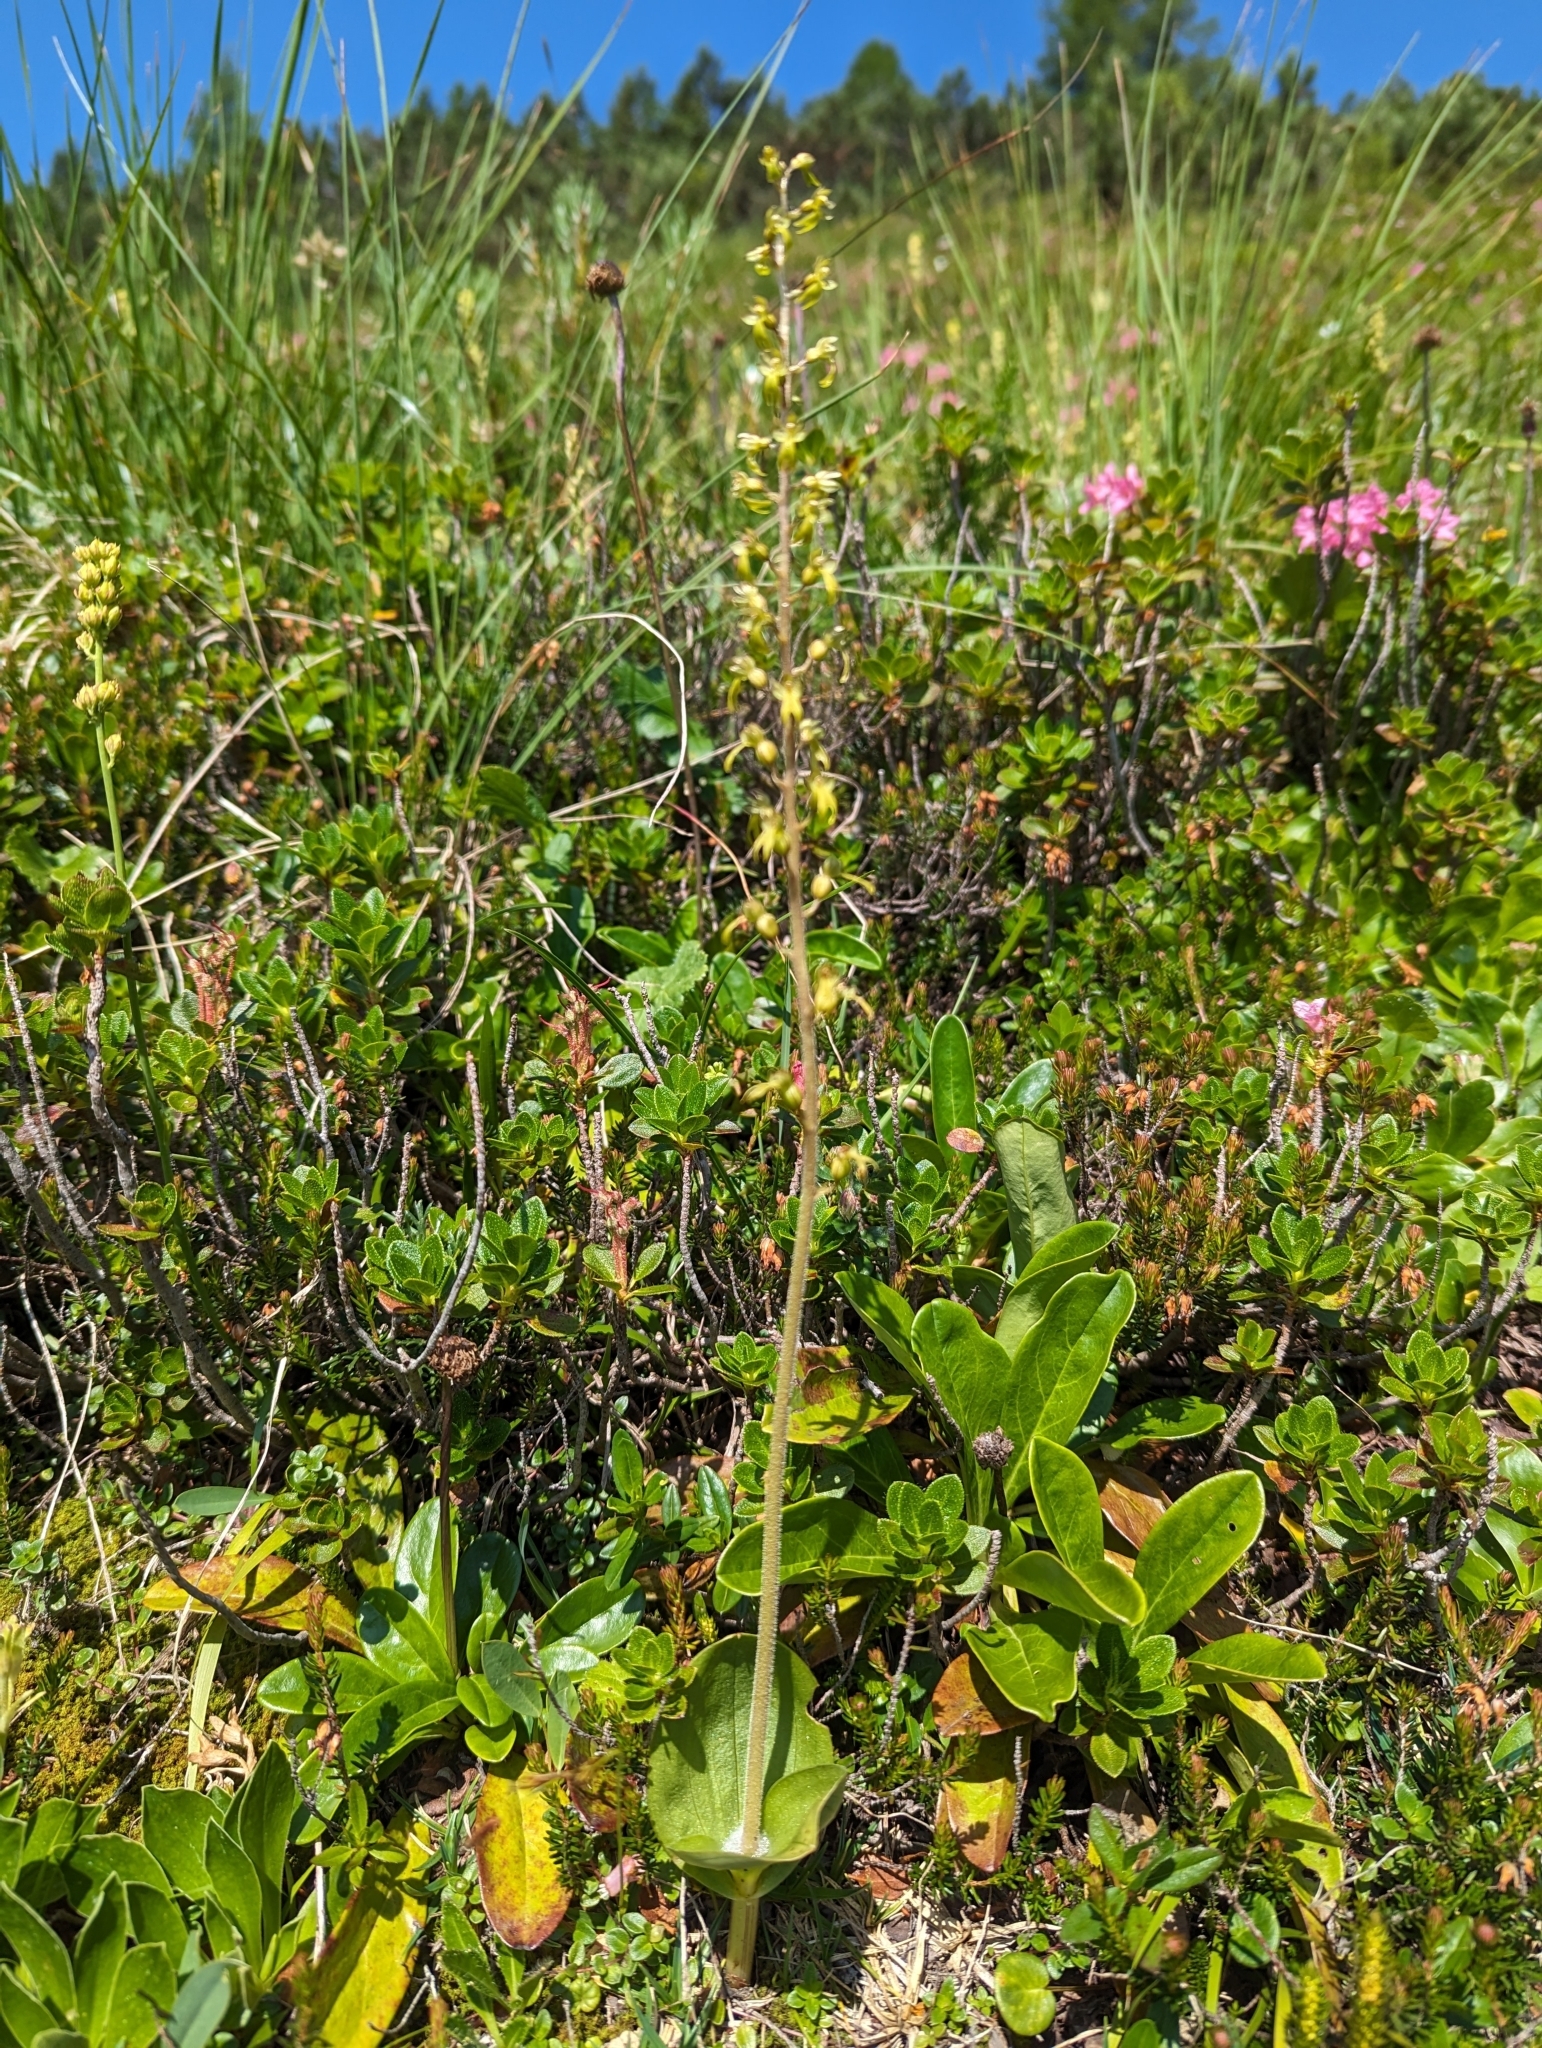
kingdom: Plantae
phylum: Tracheophyta
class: Liliopsida
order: Asparagales
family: Orchidaceae
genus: Neottia
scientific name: Neottia ovata
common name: Common twayblade
